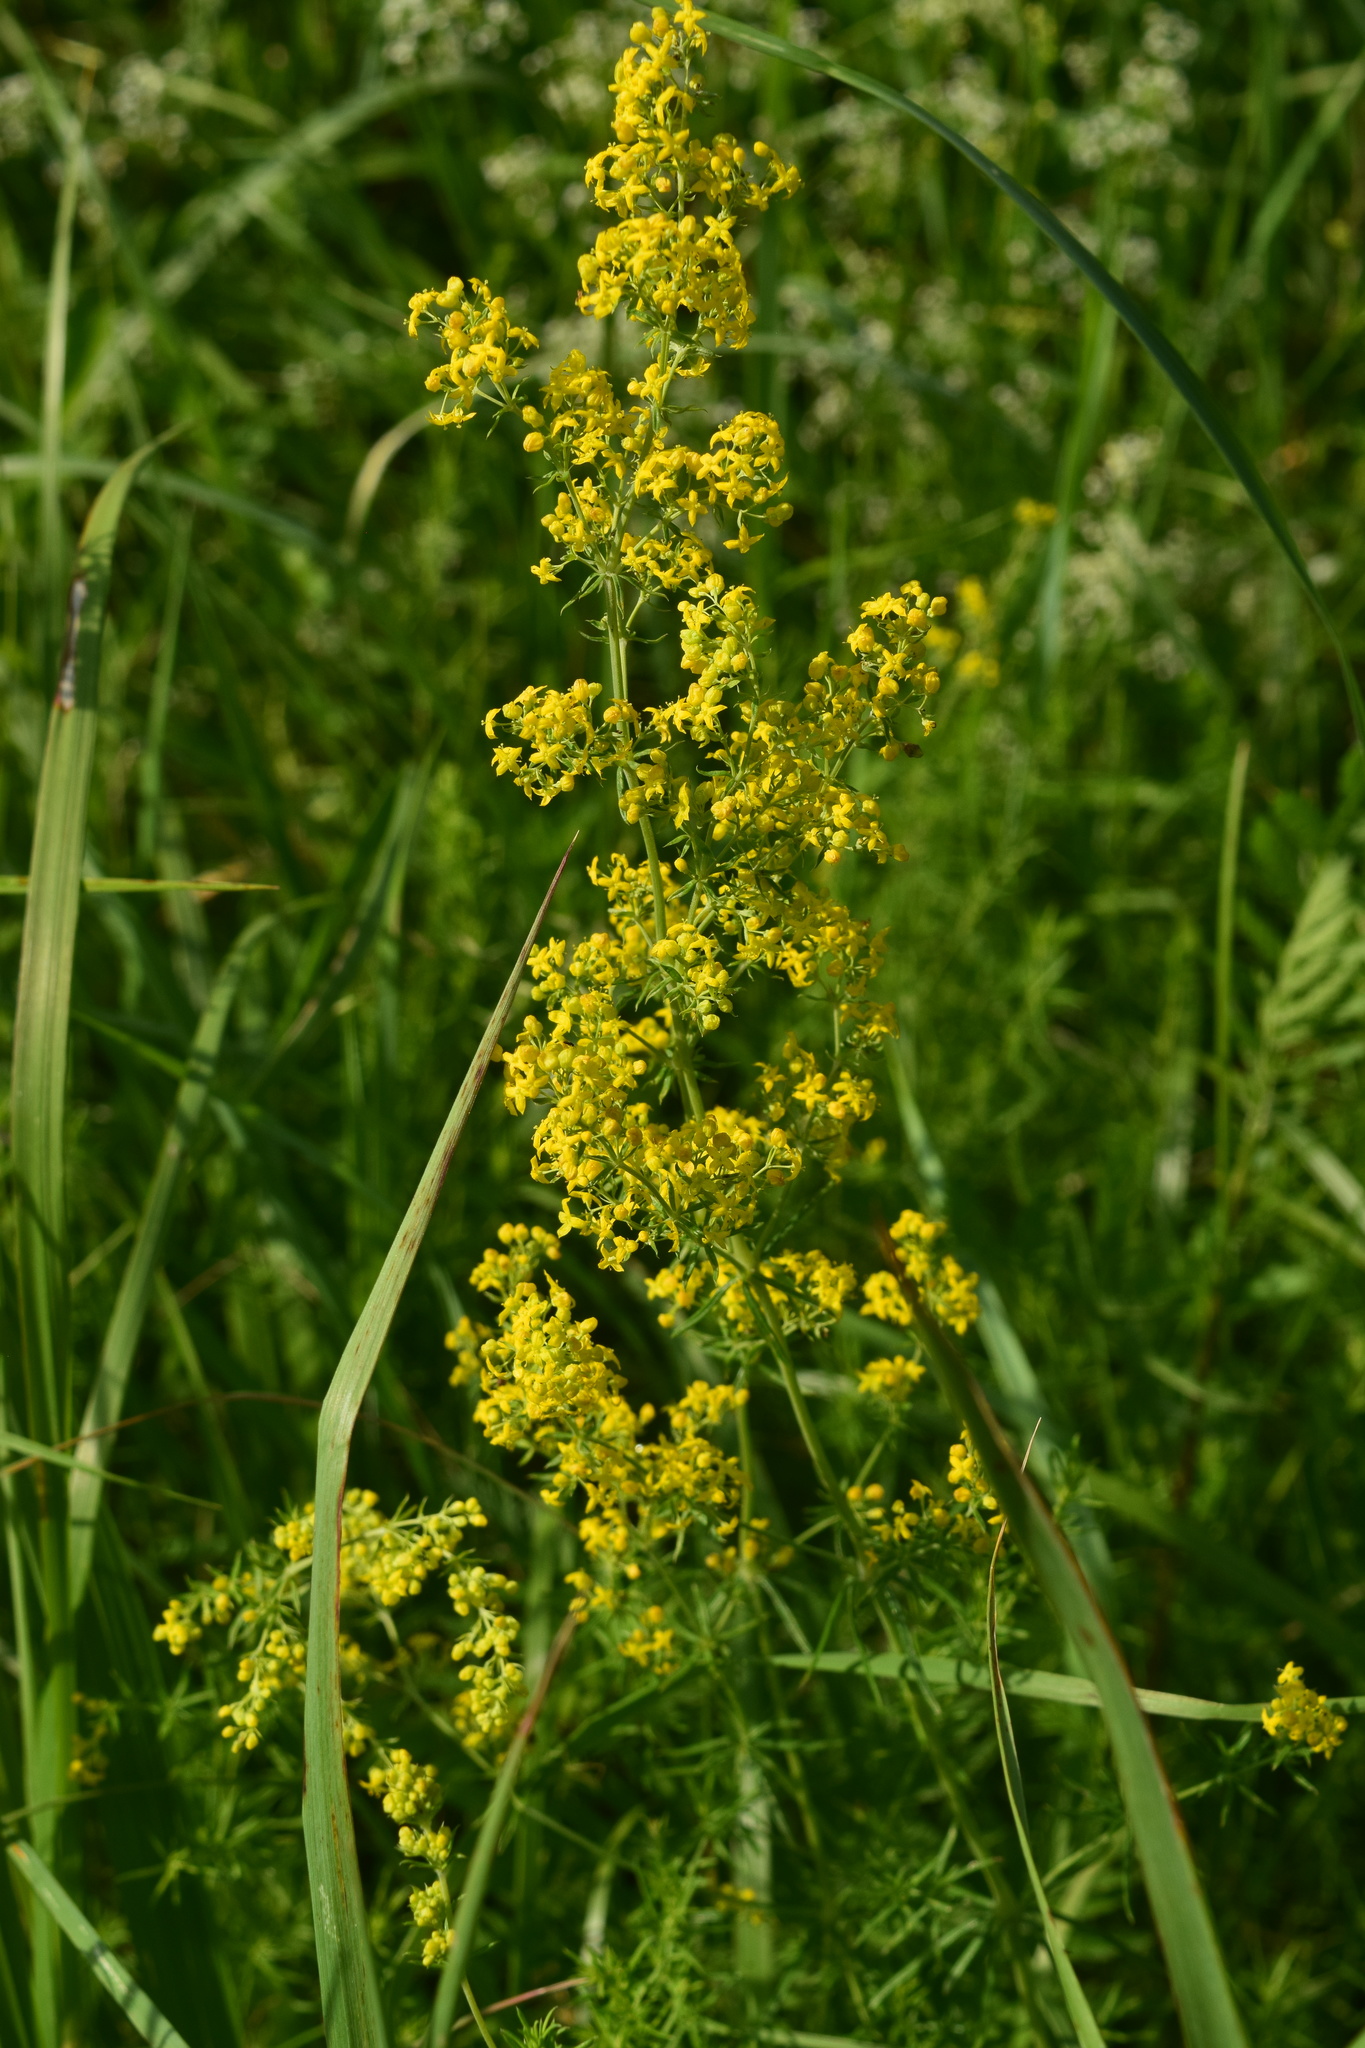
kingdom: Plantae
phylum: Tracheophyta
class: Magnoliopsida
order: Gentianales
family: Rubiaceae
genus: Galium
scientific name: Galium verum
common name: Lady's bedstraw
